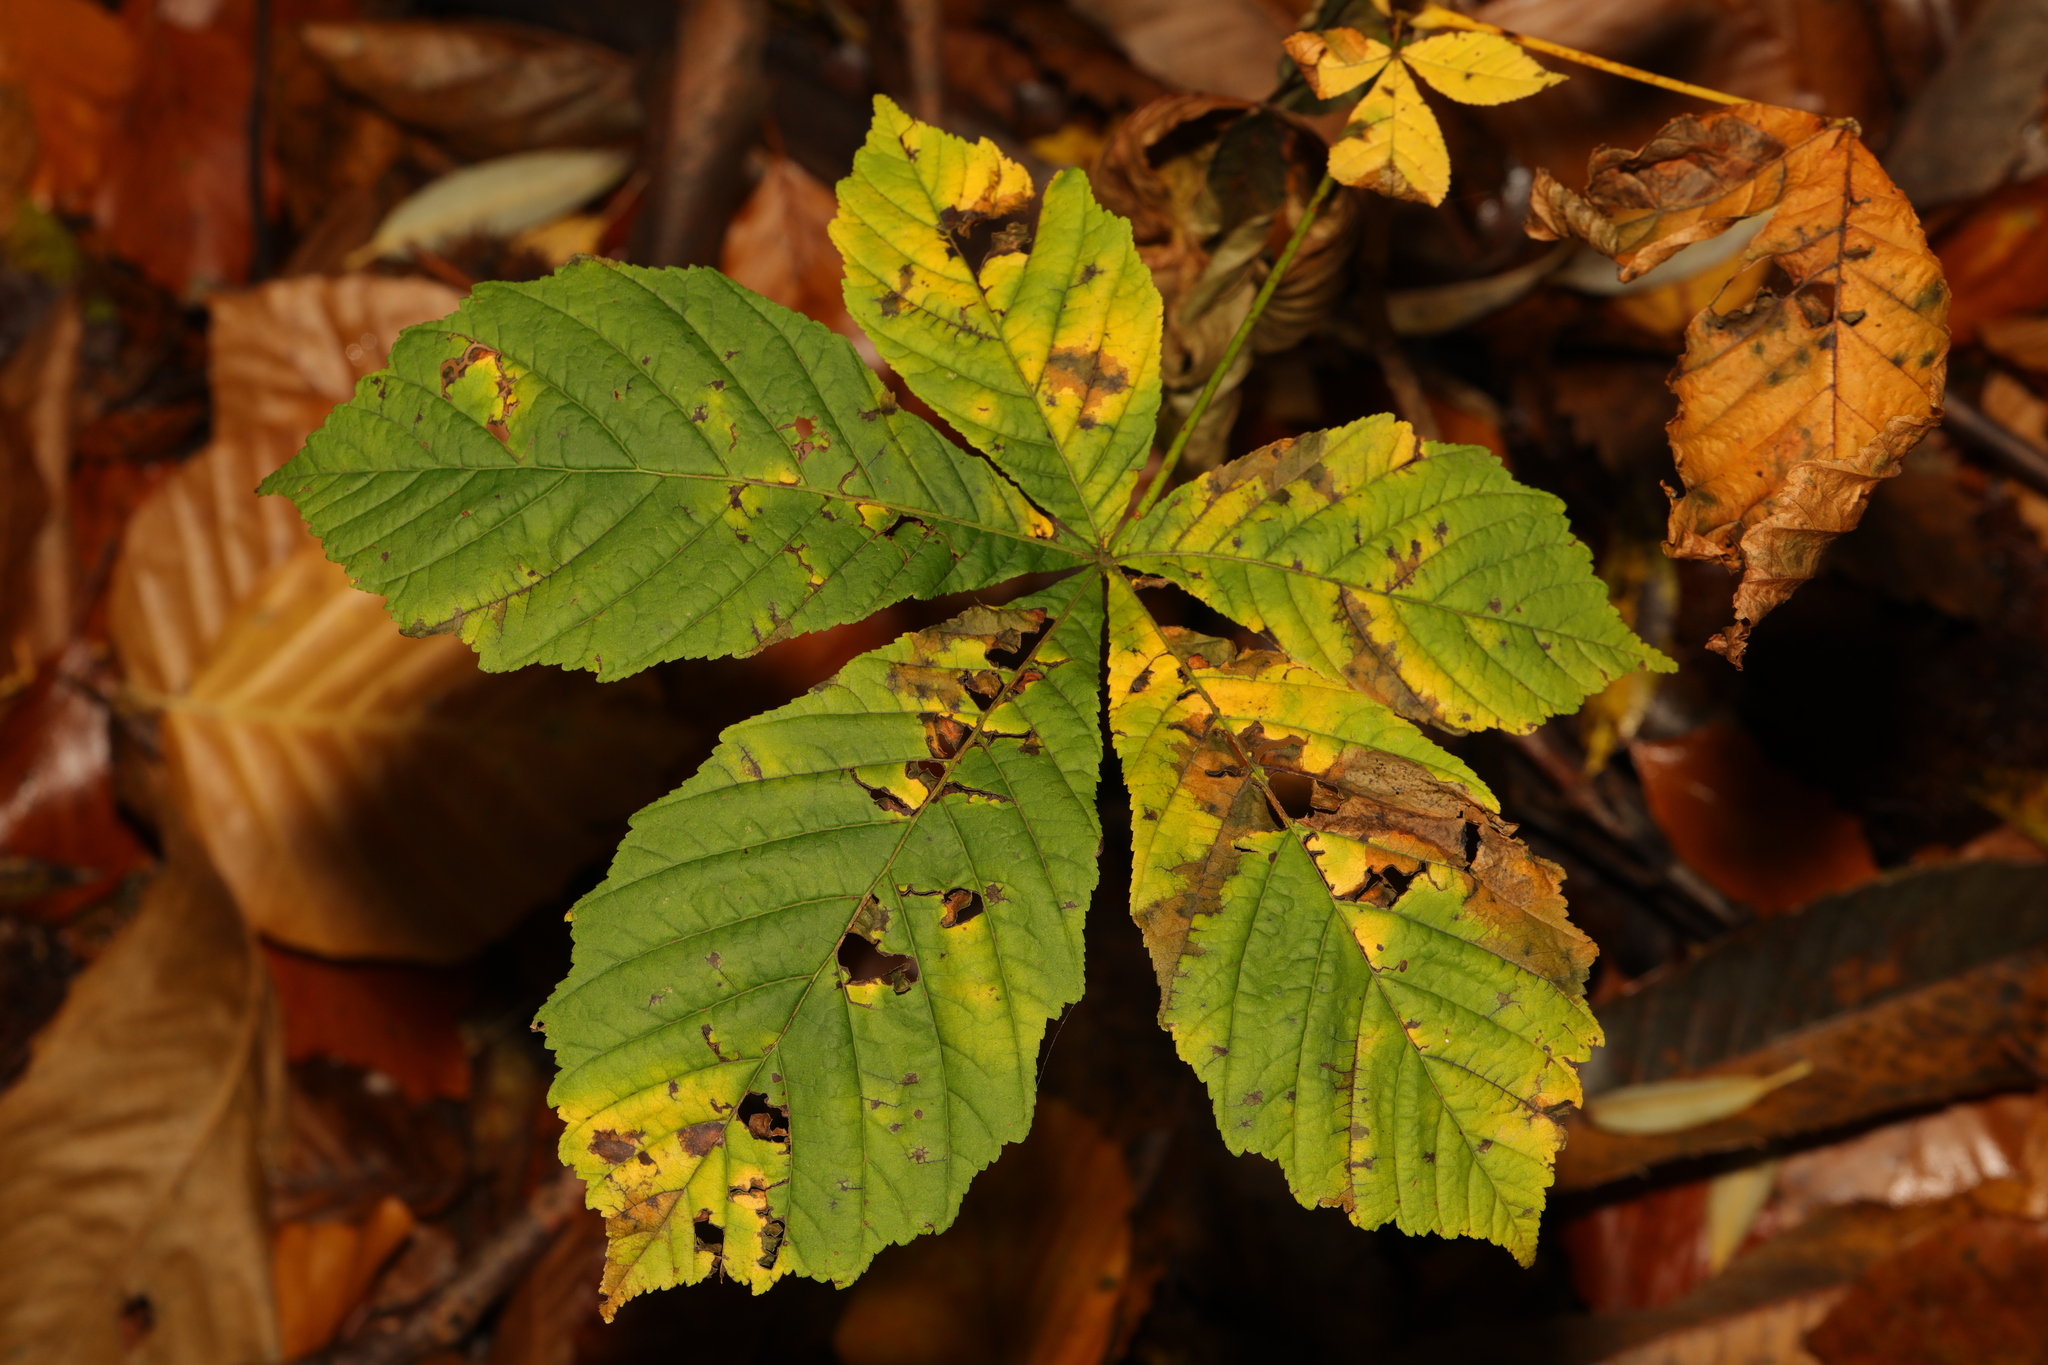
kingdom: Plantae
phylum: Tracheophyta
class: Magnoliopsida
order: Sapindales
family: Sapindaceae
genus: Aesculus
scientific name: Aesculus hippocastanum
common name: Horse-chestnut
